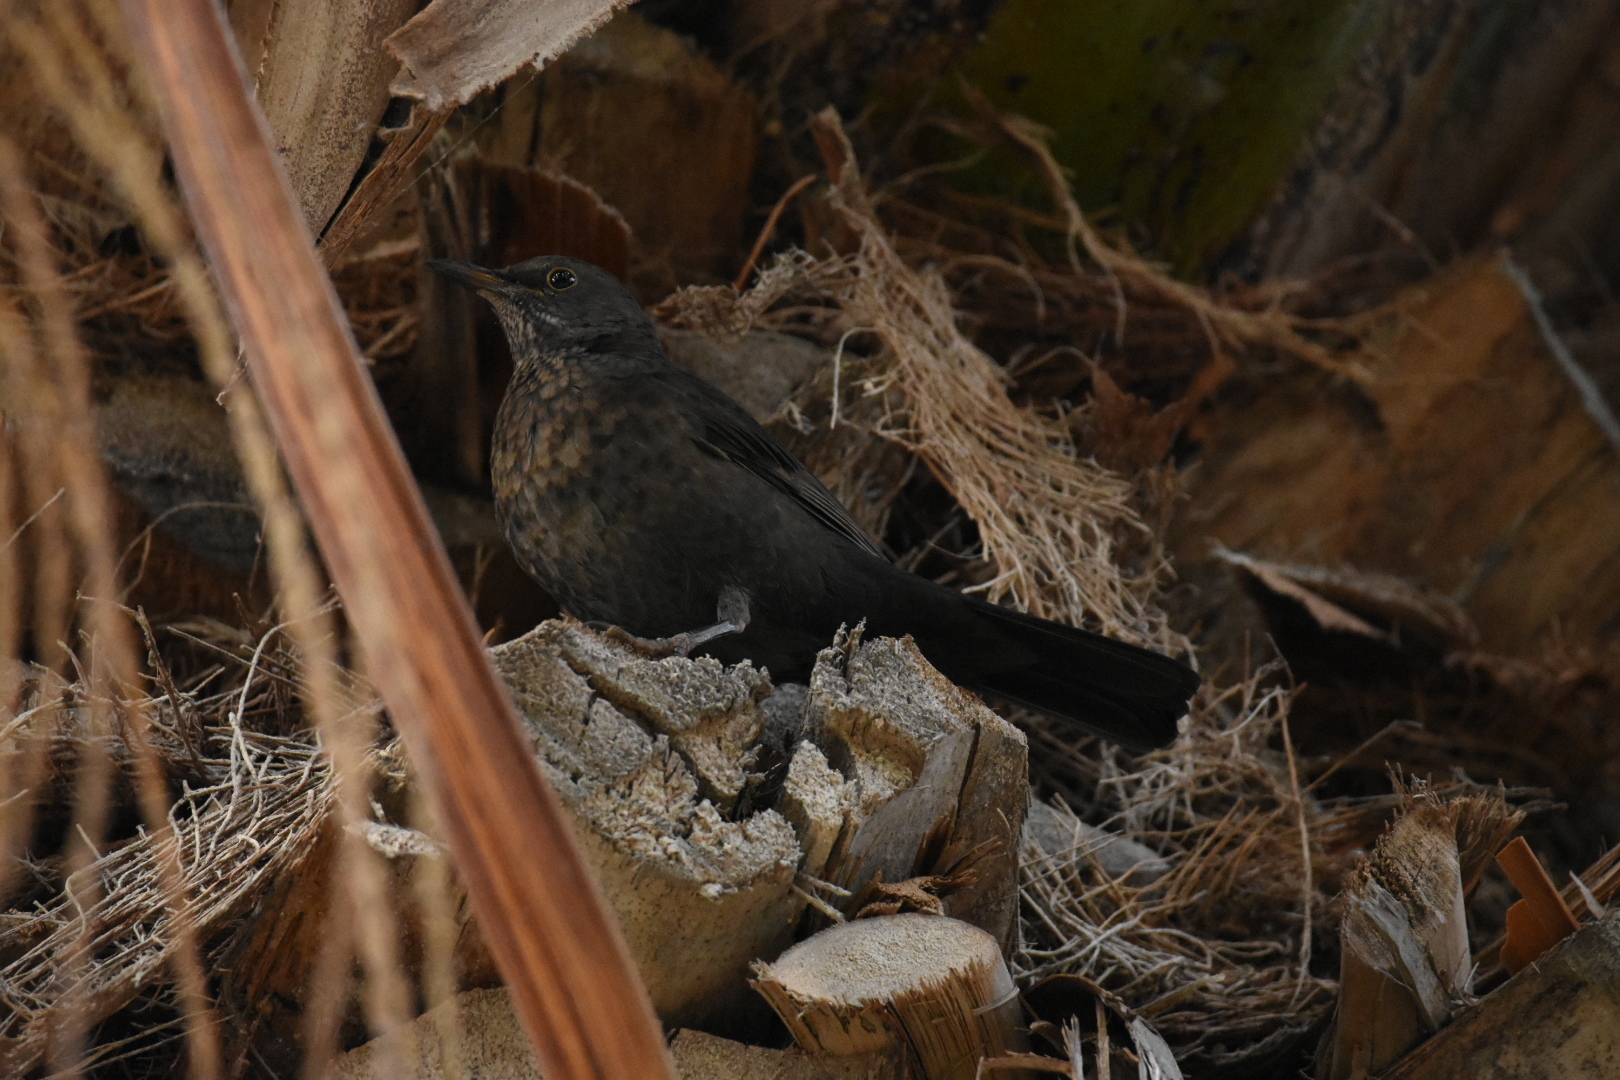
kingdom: Animalia
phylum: Chordata
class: Aves
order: Passeriformes
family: Turdidae
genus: Turdus
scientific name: Turdus merula
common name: Common blackbird
